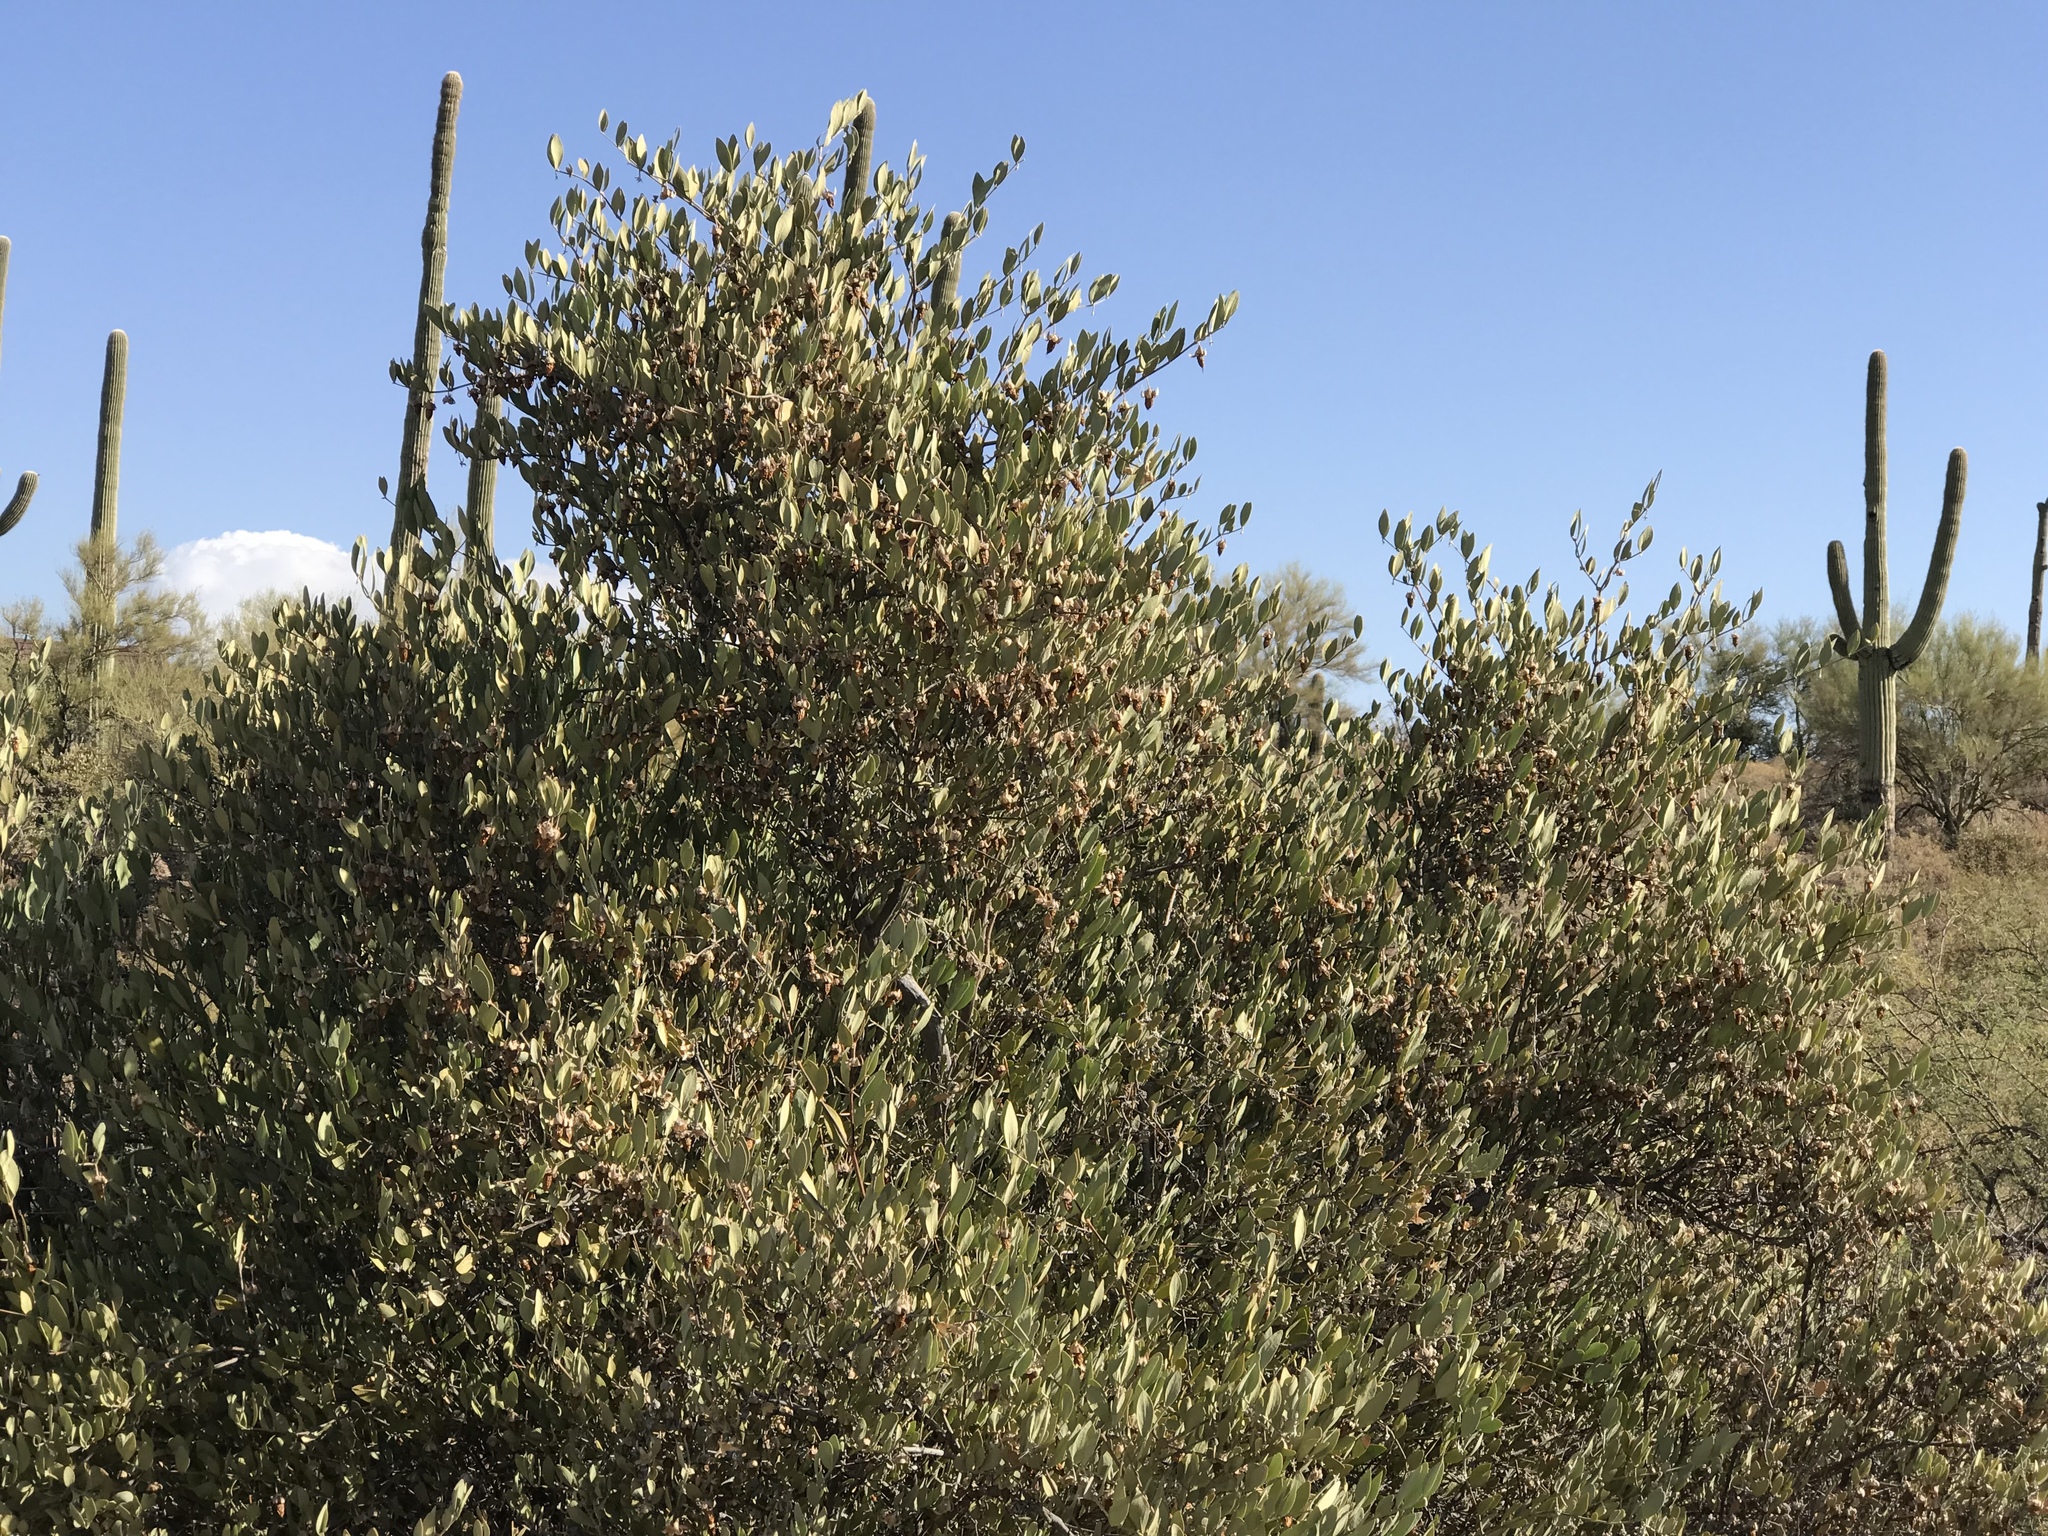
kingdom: Plantae
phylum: Tracheophyta
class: Magnoliopsida
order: Caryophyllales
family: Simmondsiaceae
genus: Simmondsia
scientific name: Simmondsia chinensis
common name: Jojoba
